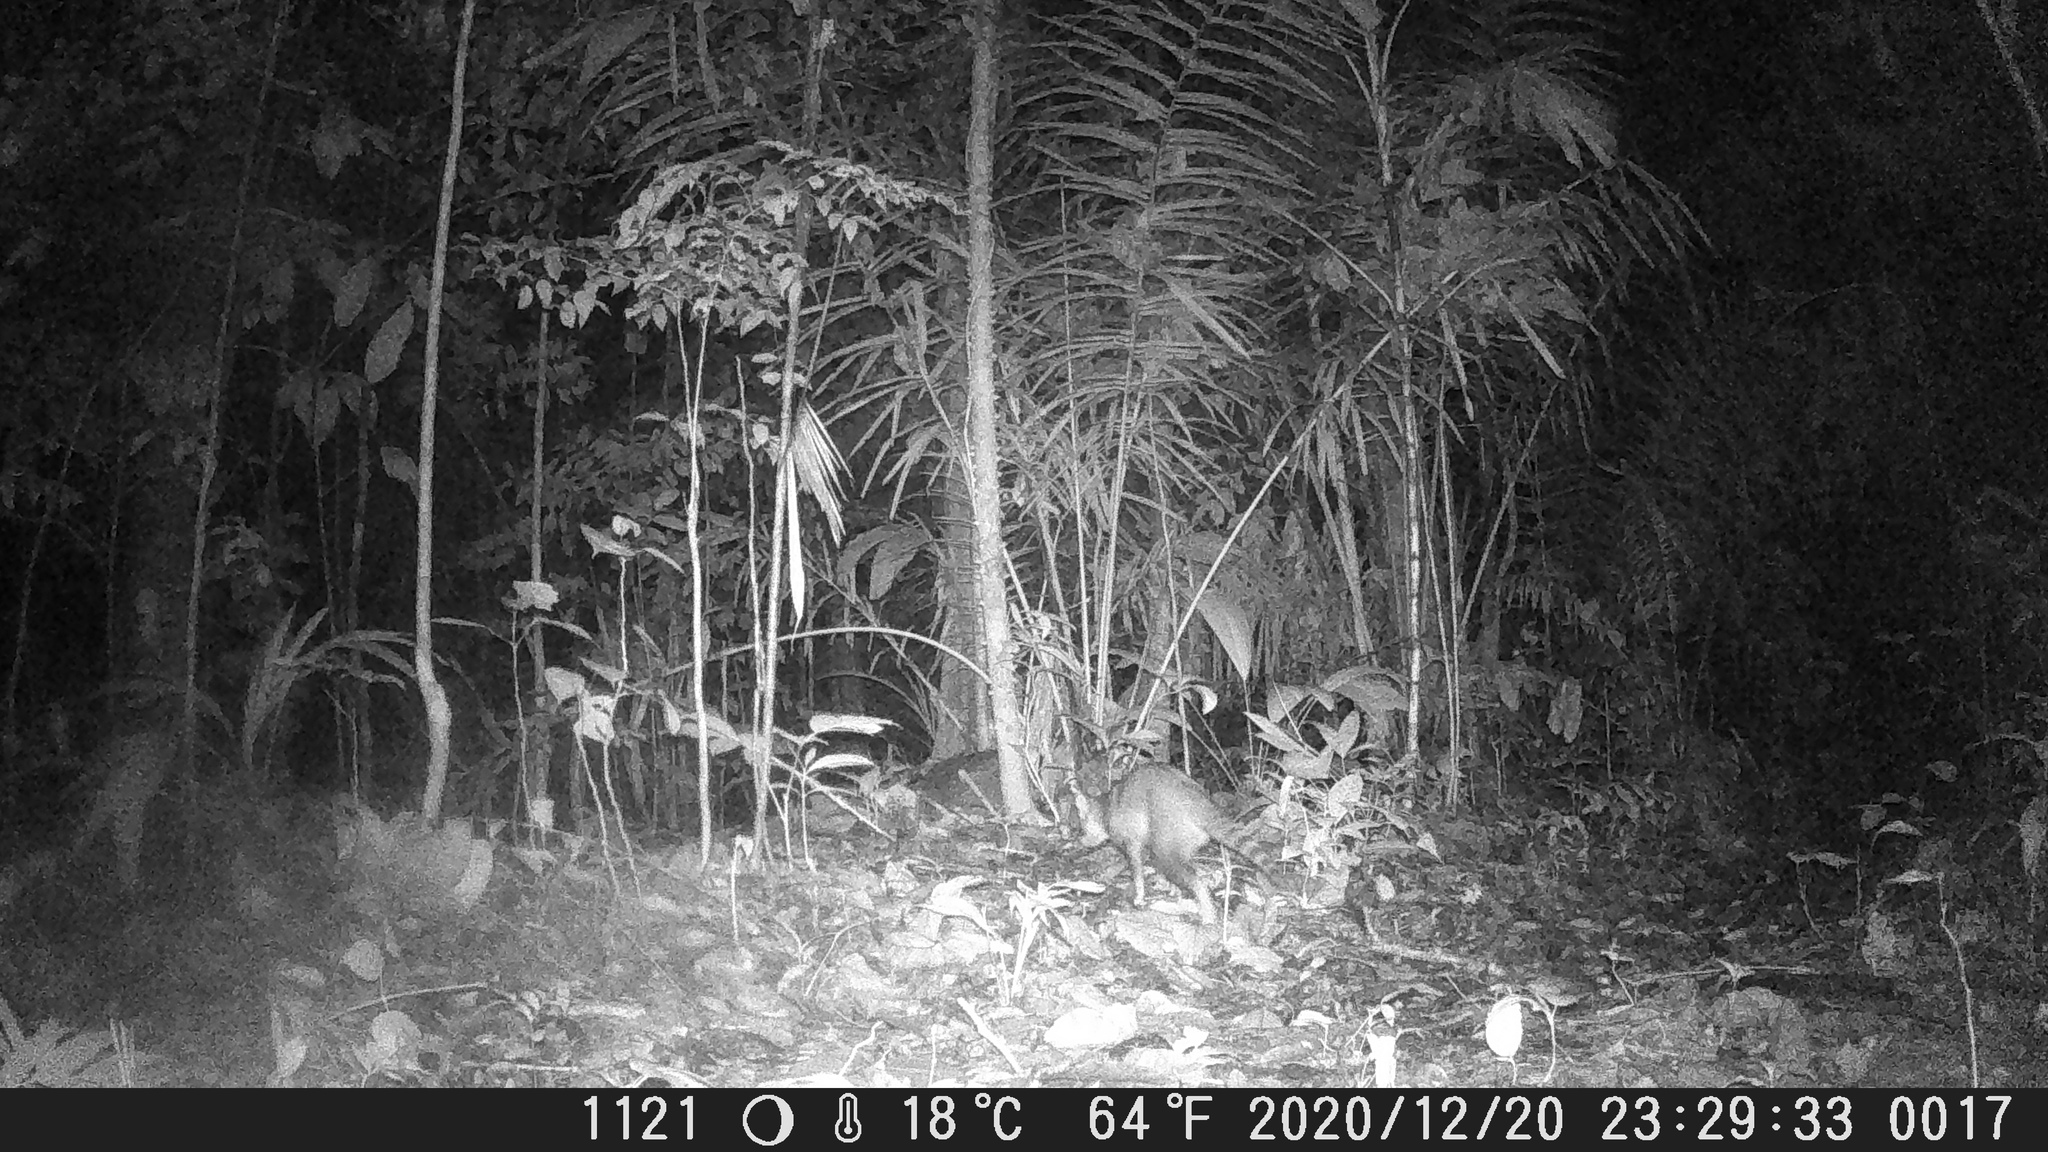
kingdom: Animalia
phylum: Chordata
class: Mammalia
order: Carnivora
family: Procyonidae
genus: Procyon
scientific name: Procyon cancrivorus
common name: Crab-eating raccoon
